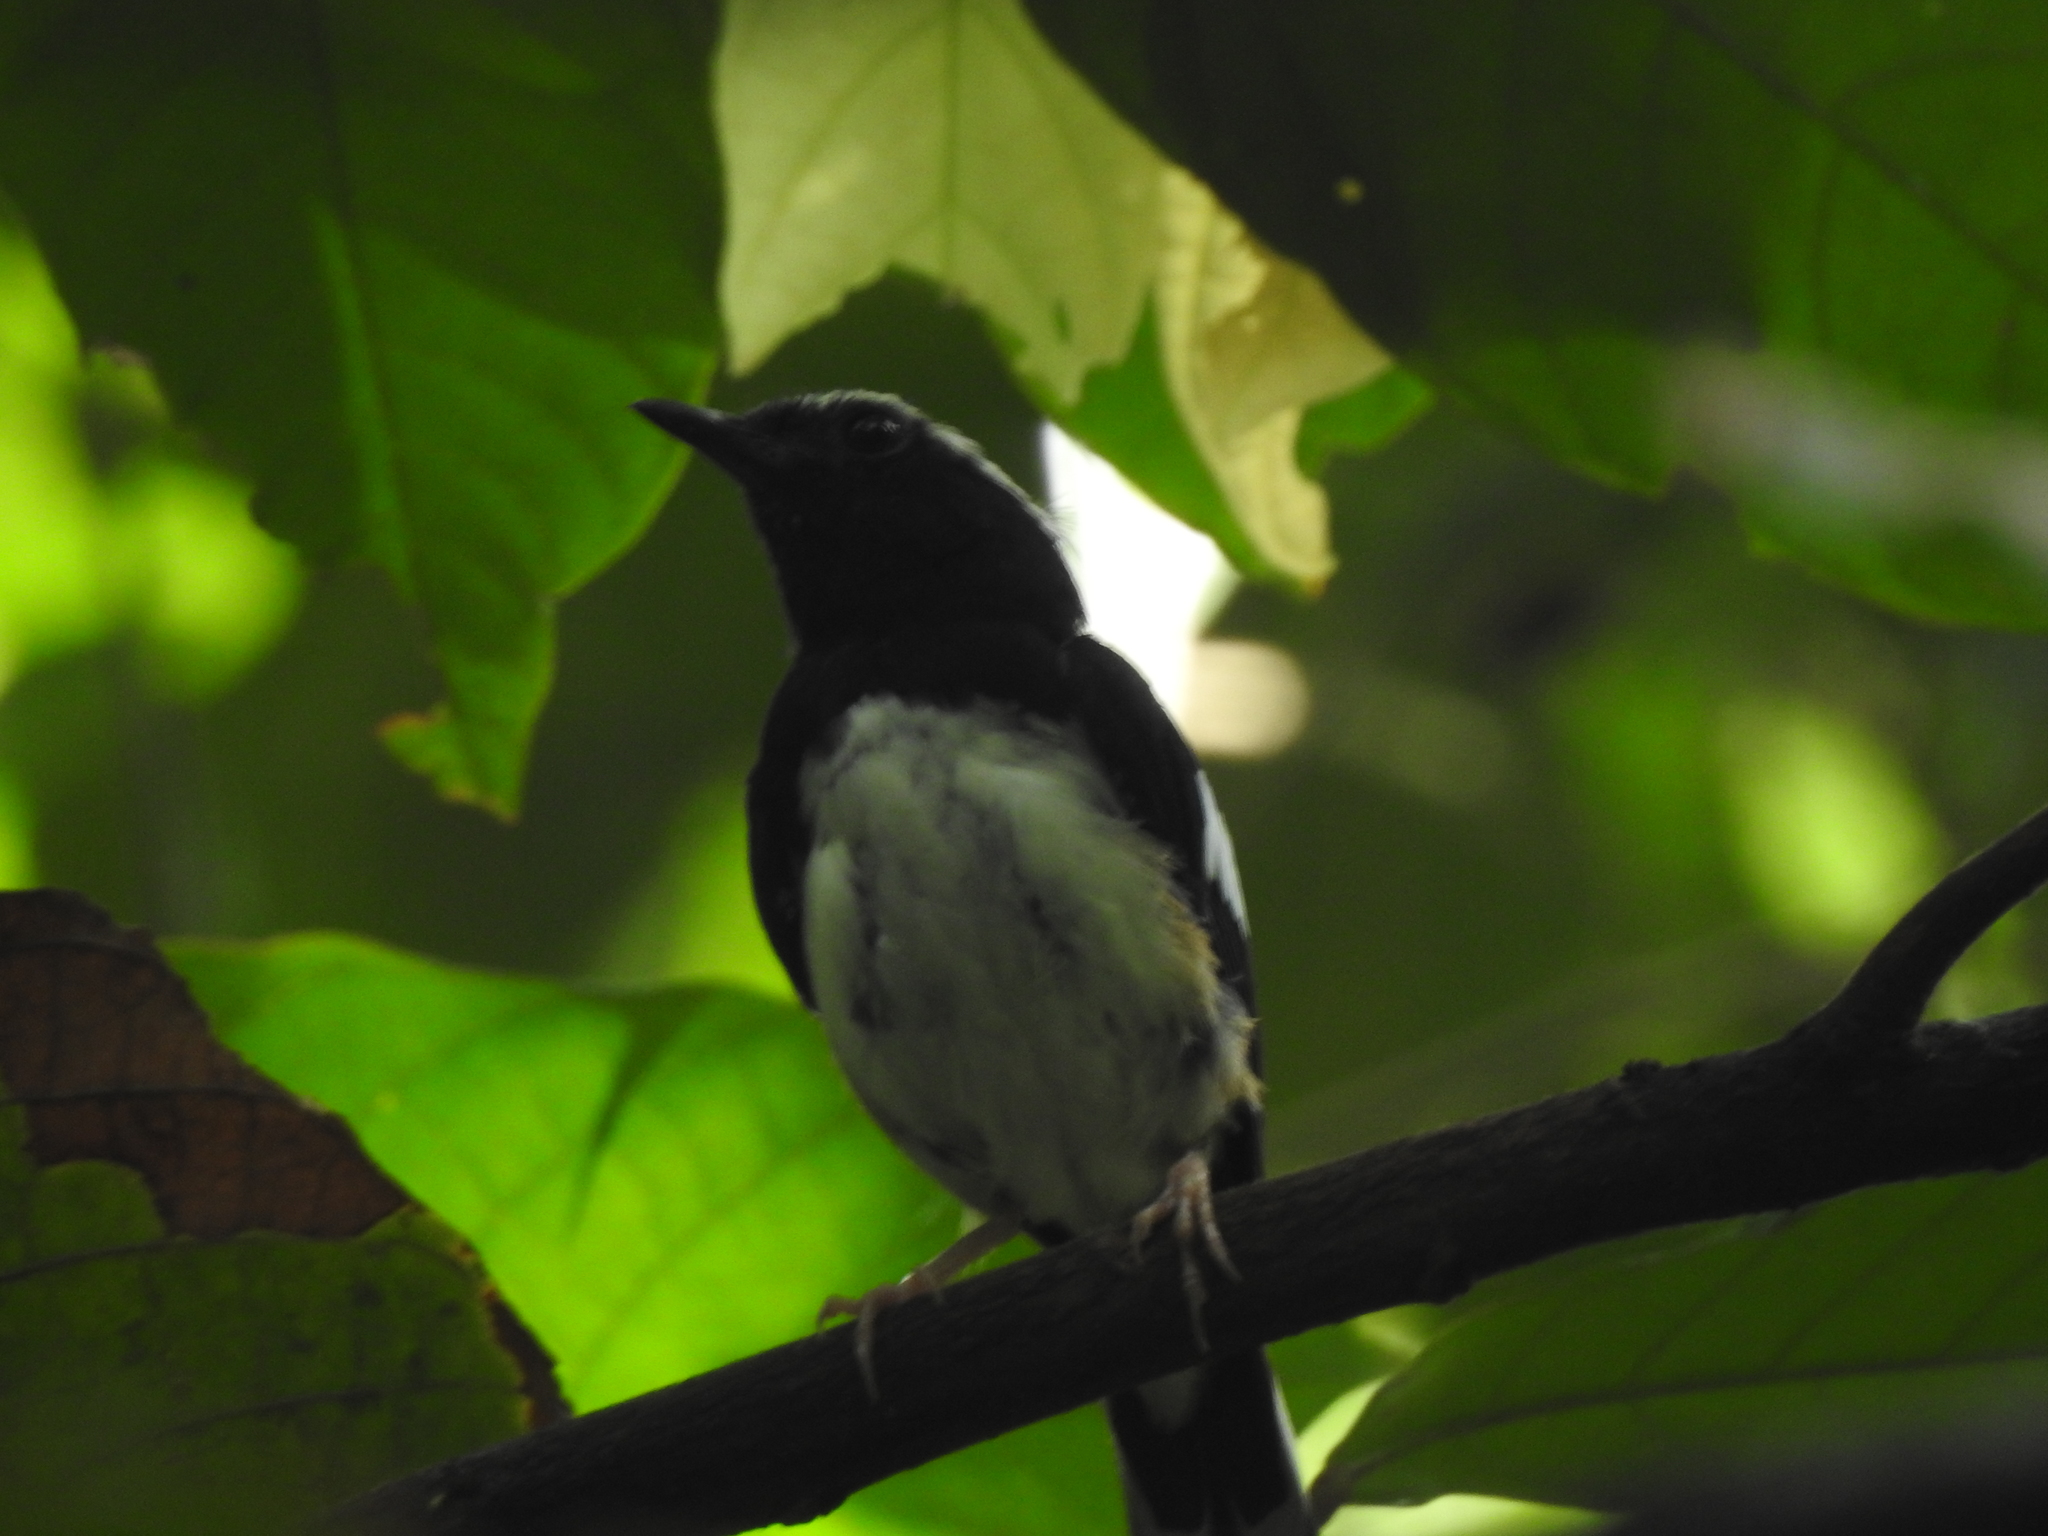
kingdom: Animalia
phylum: Chordata
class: Aves
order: Passeriformes
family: Muscicapidae
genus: Copsychus
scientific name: Copsychus luzoniensis
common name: White-browed shama
